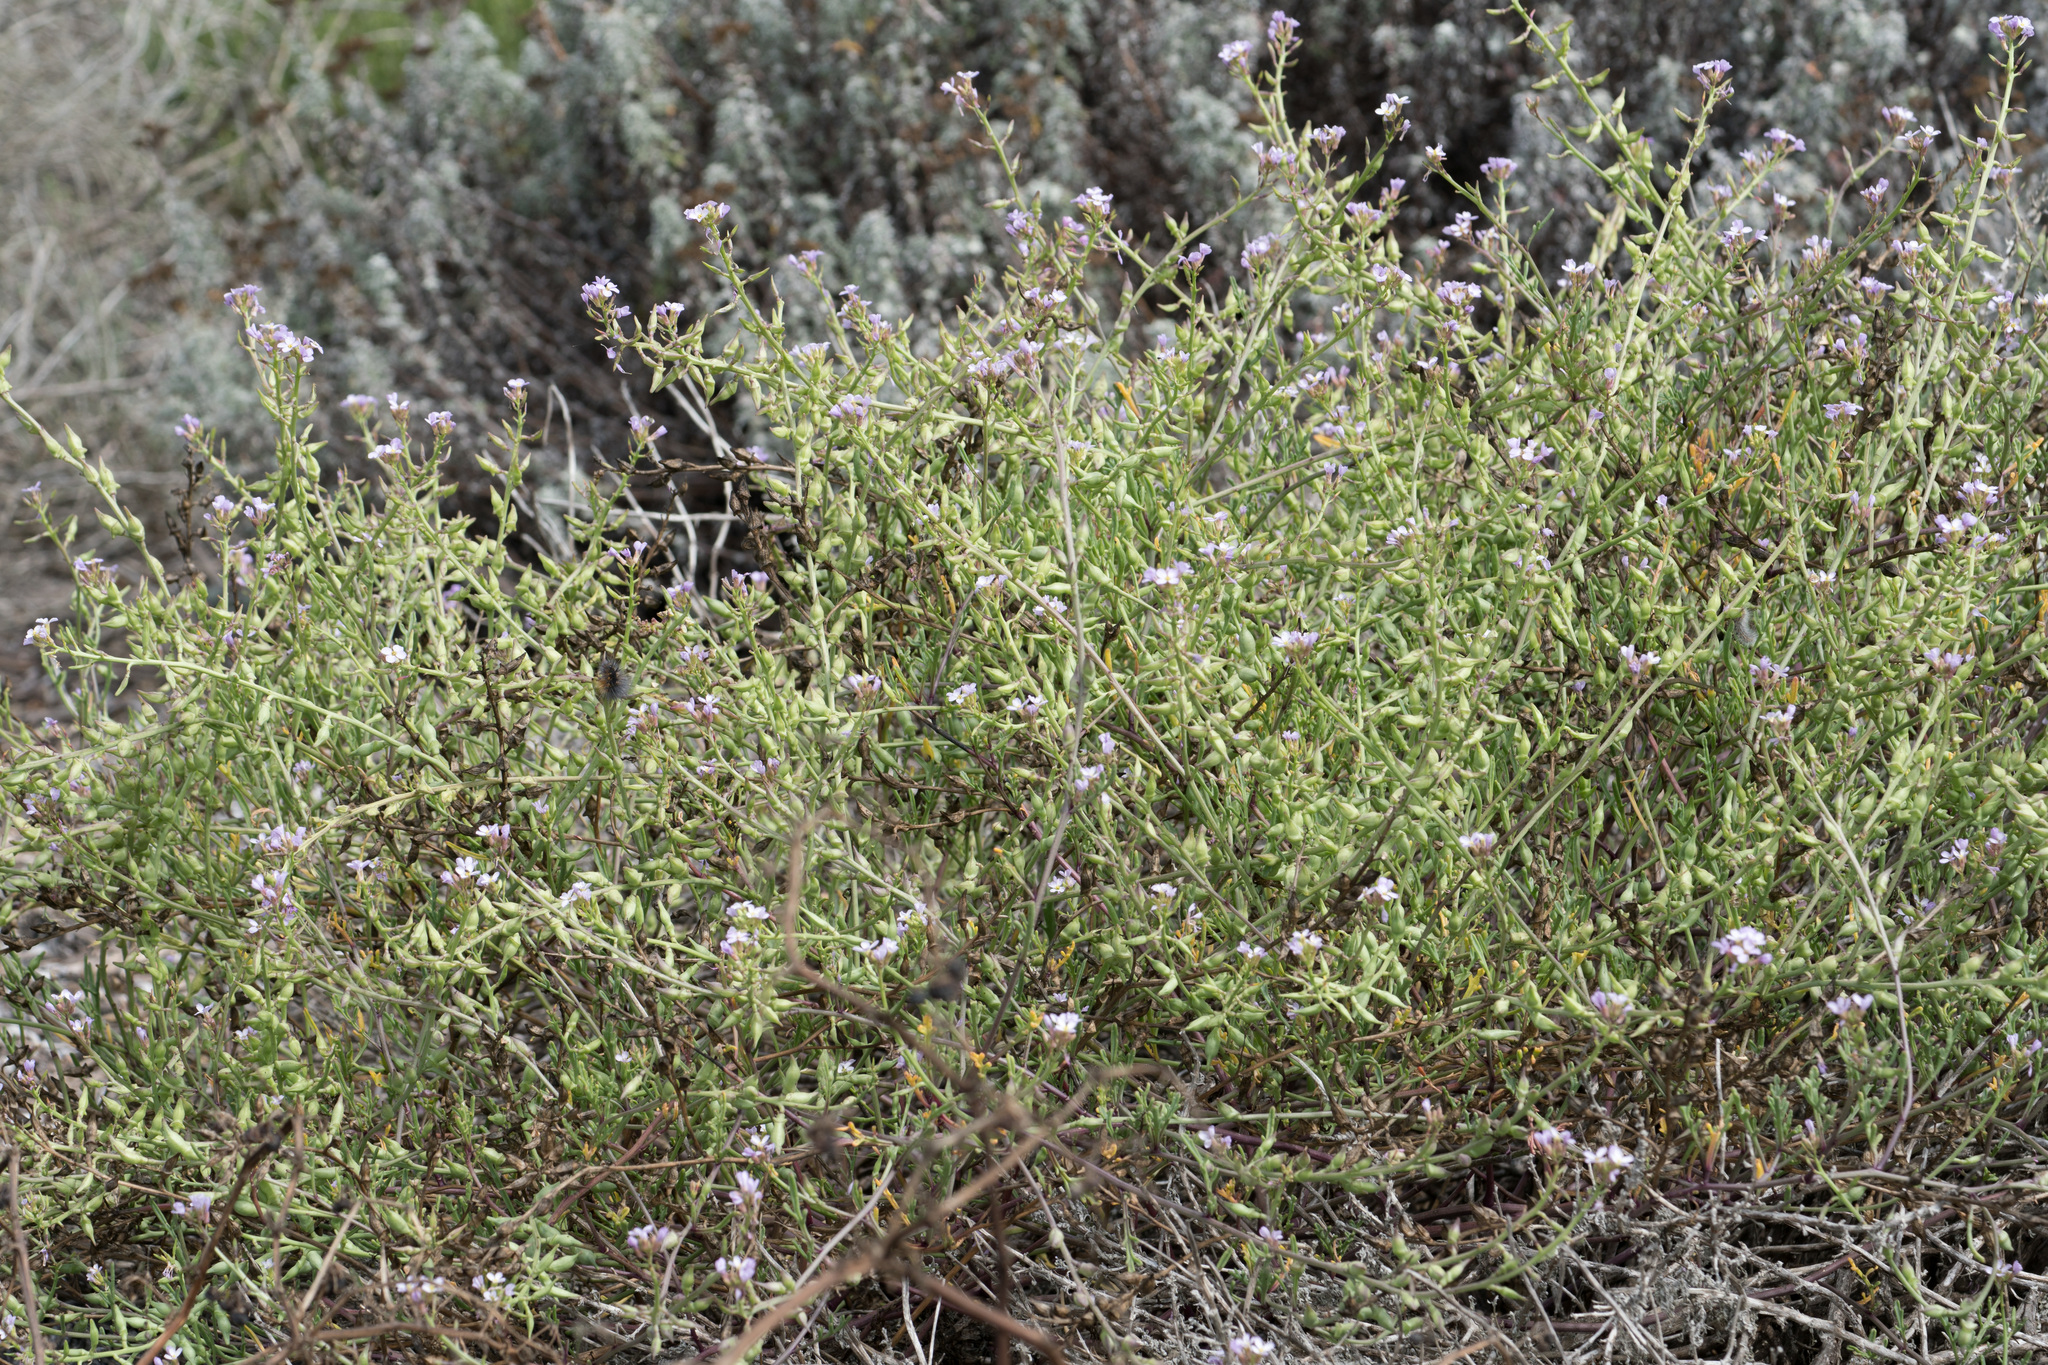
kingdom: Plantae
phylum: Tracheophyta
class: Magnoliopsida
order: Brassicales
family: Brassicaceae
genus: Cakile
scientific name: Cakile maritima
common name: Sea rocket
